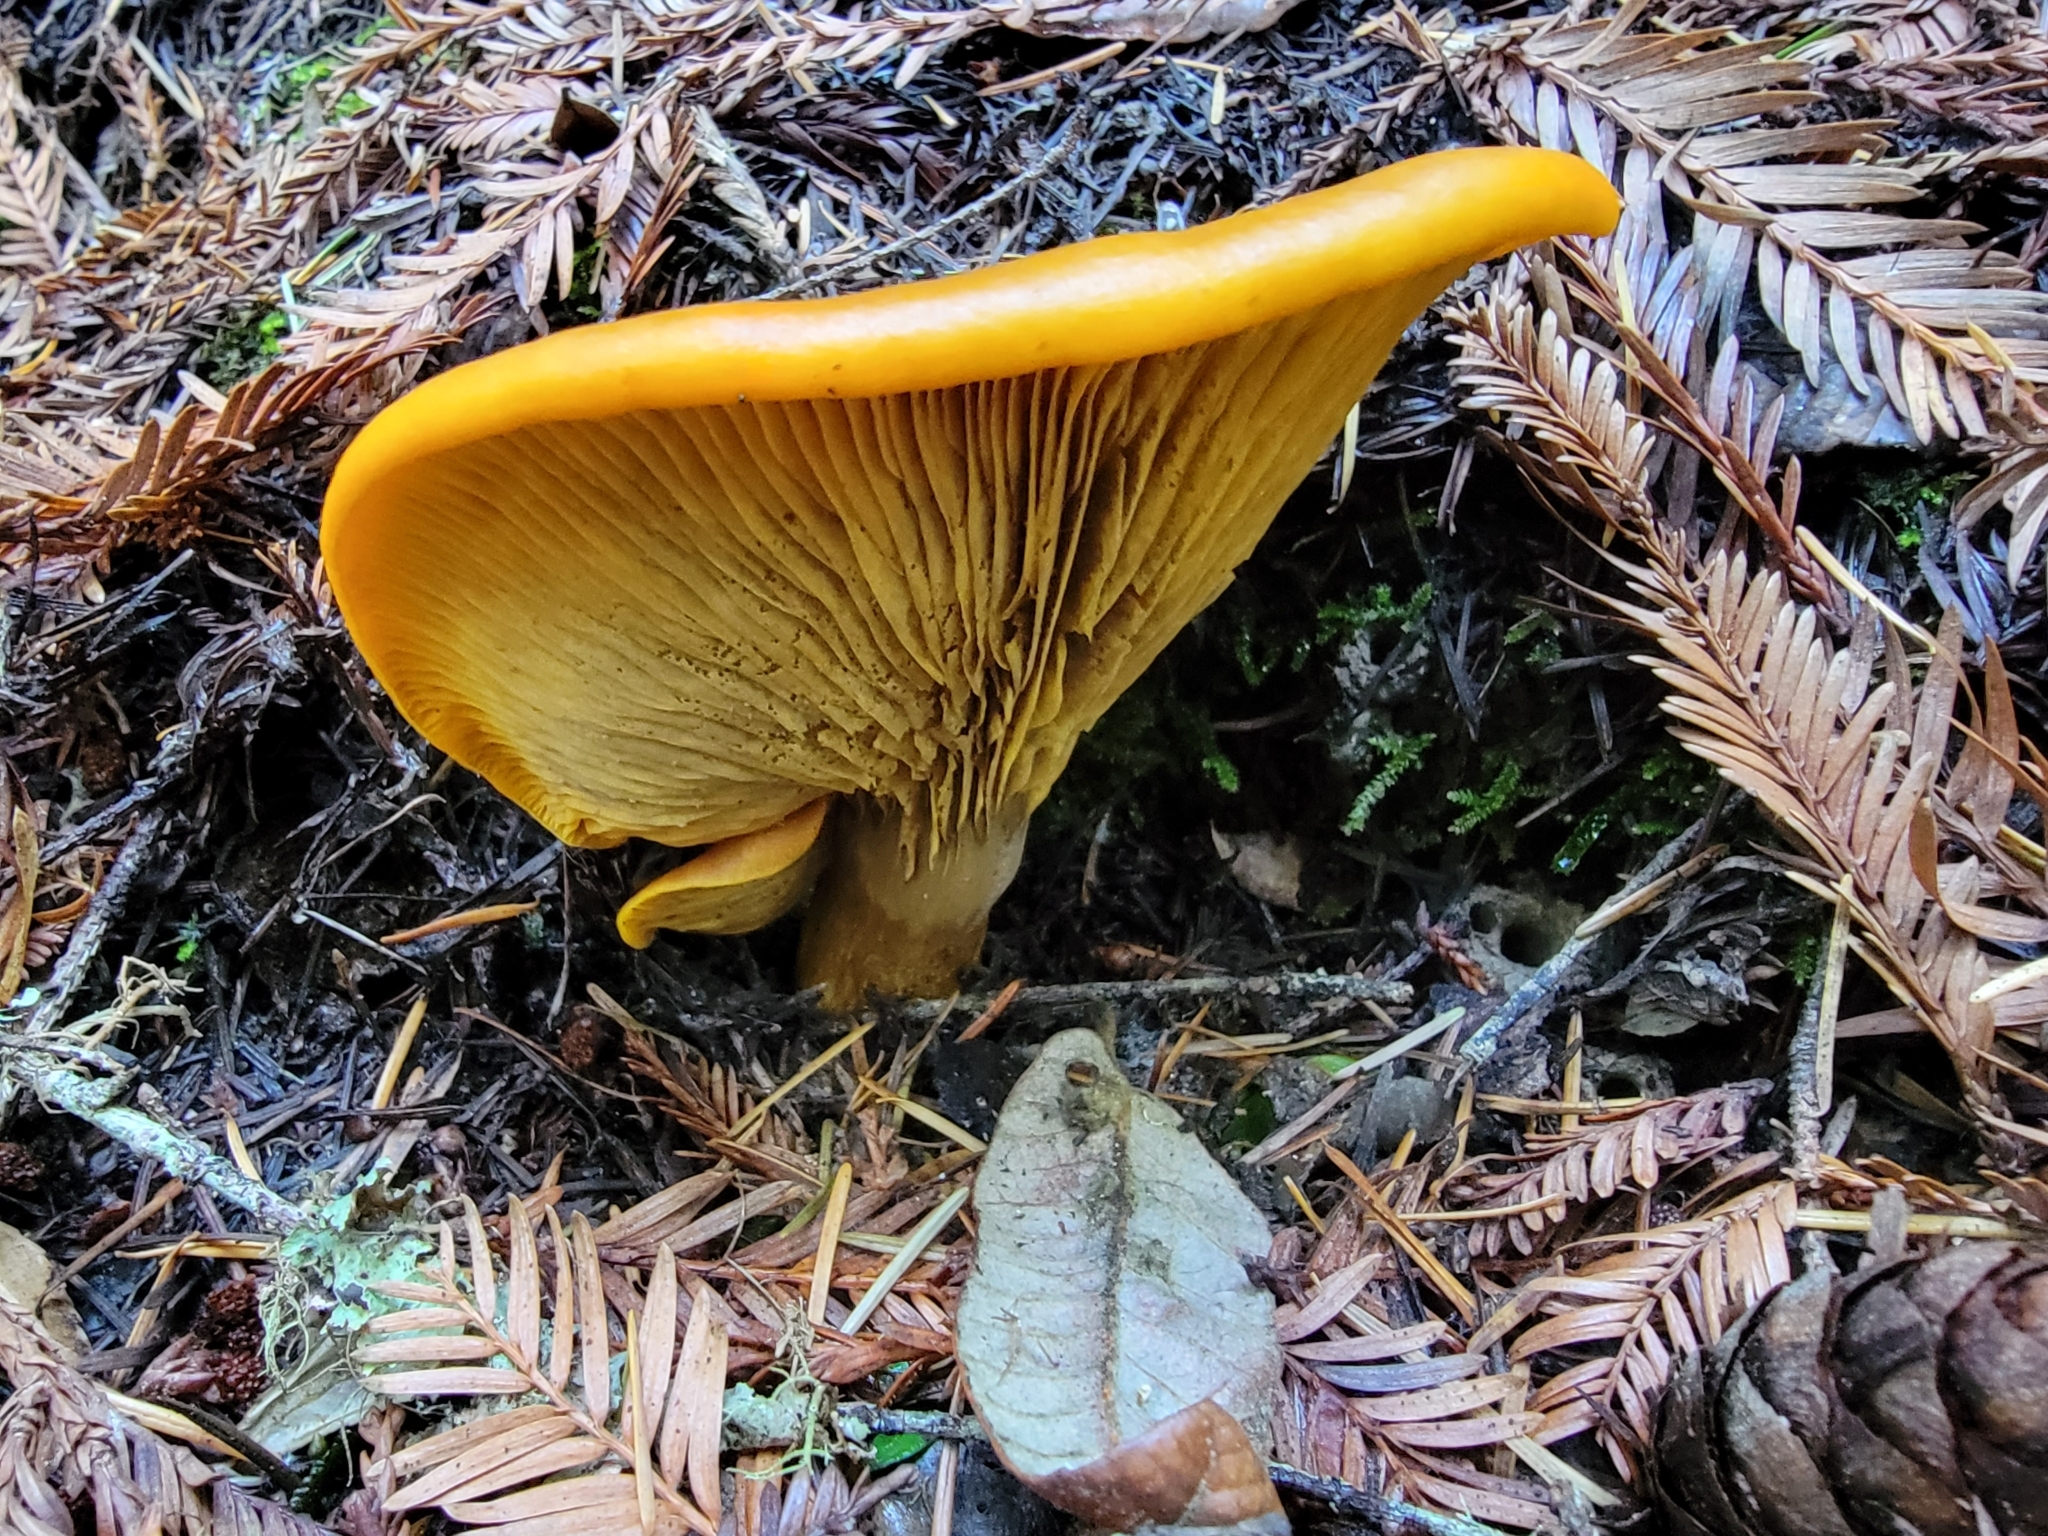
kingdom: Fungi
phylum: Basidiomycota
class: Agaricomycetes
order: Agaricales
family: Omphalotaceae
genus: Omphalotus
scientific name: Omphalotus olivascens
